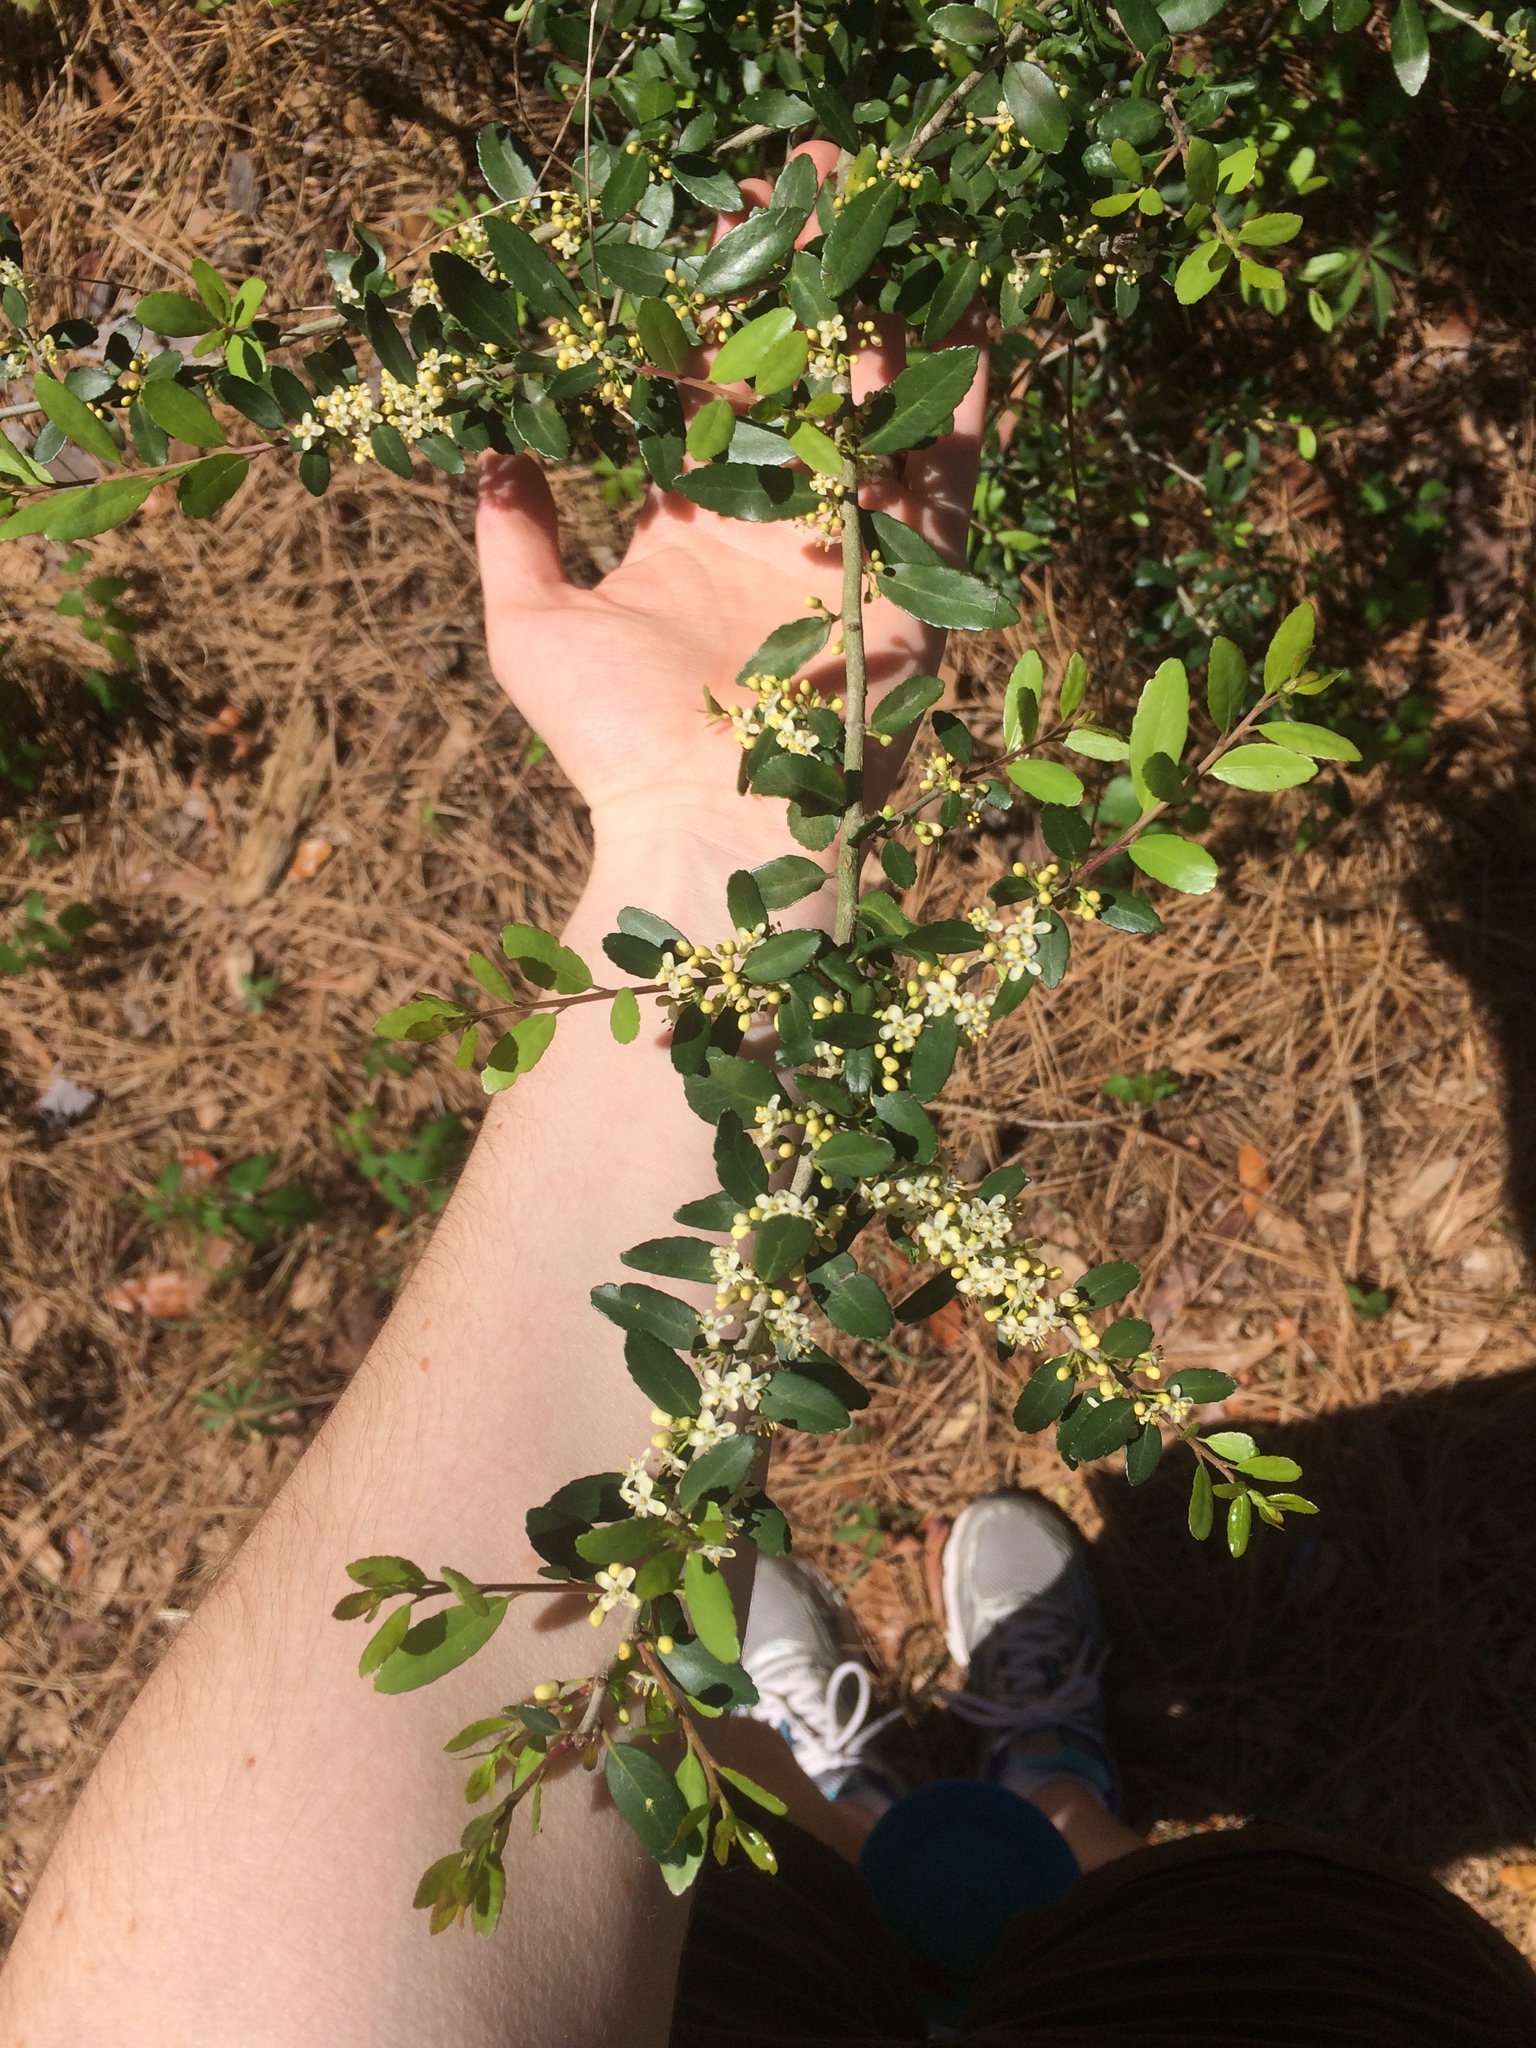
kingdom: Plantae
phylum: Tracheophyta
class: Magnoliopsida
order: Aquifoliales
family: Aquifoliaceae
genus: Ilex
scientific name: Ilex vomitoria
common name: Yaupon holly
